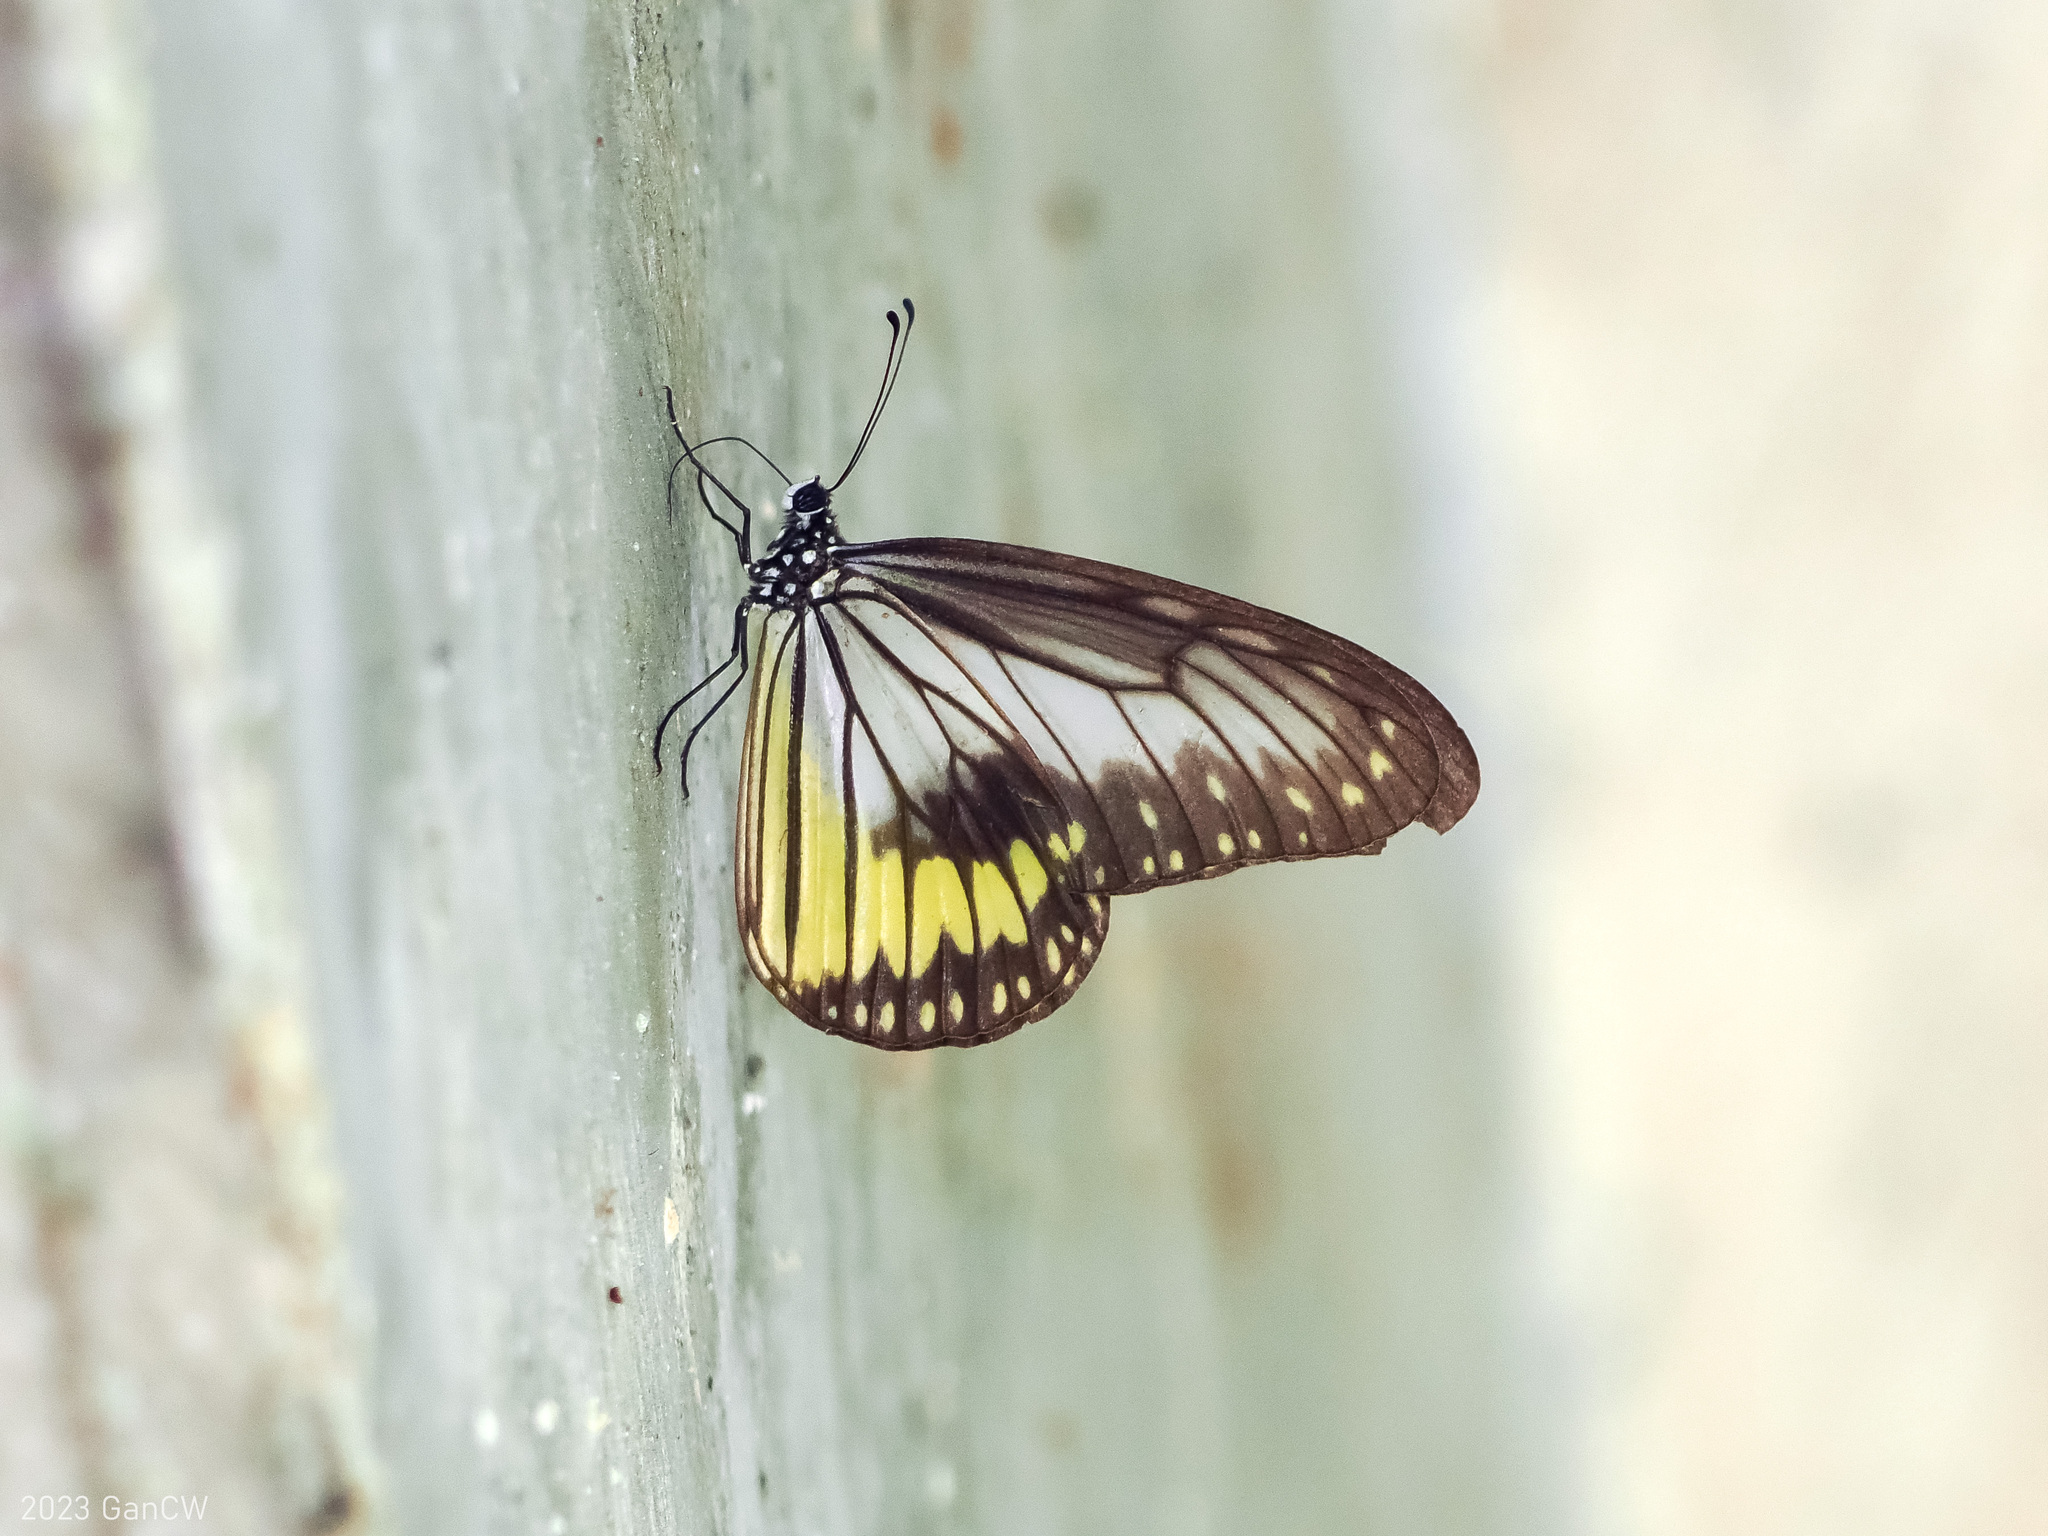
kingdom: Animalia
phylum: Arthropoda
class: Insecta
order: Lepidoptera
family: Nymphalidae
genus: Ideopsis
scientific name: Ideopsis vitrea
